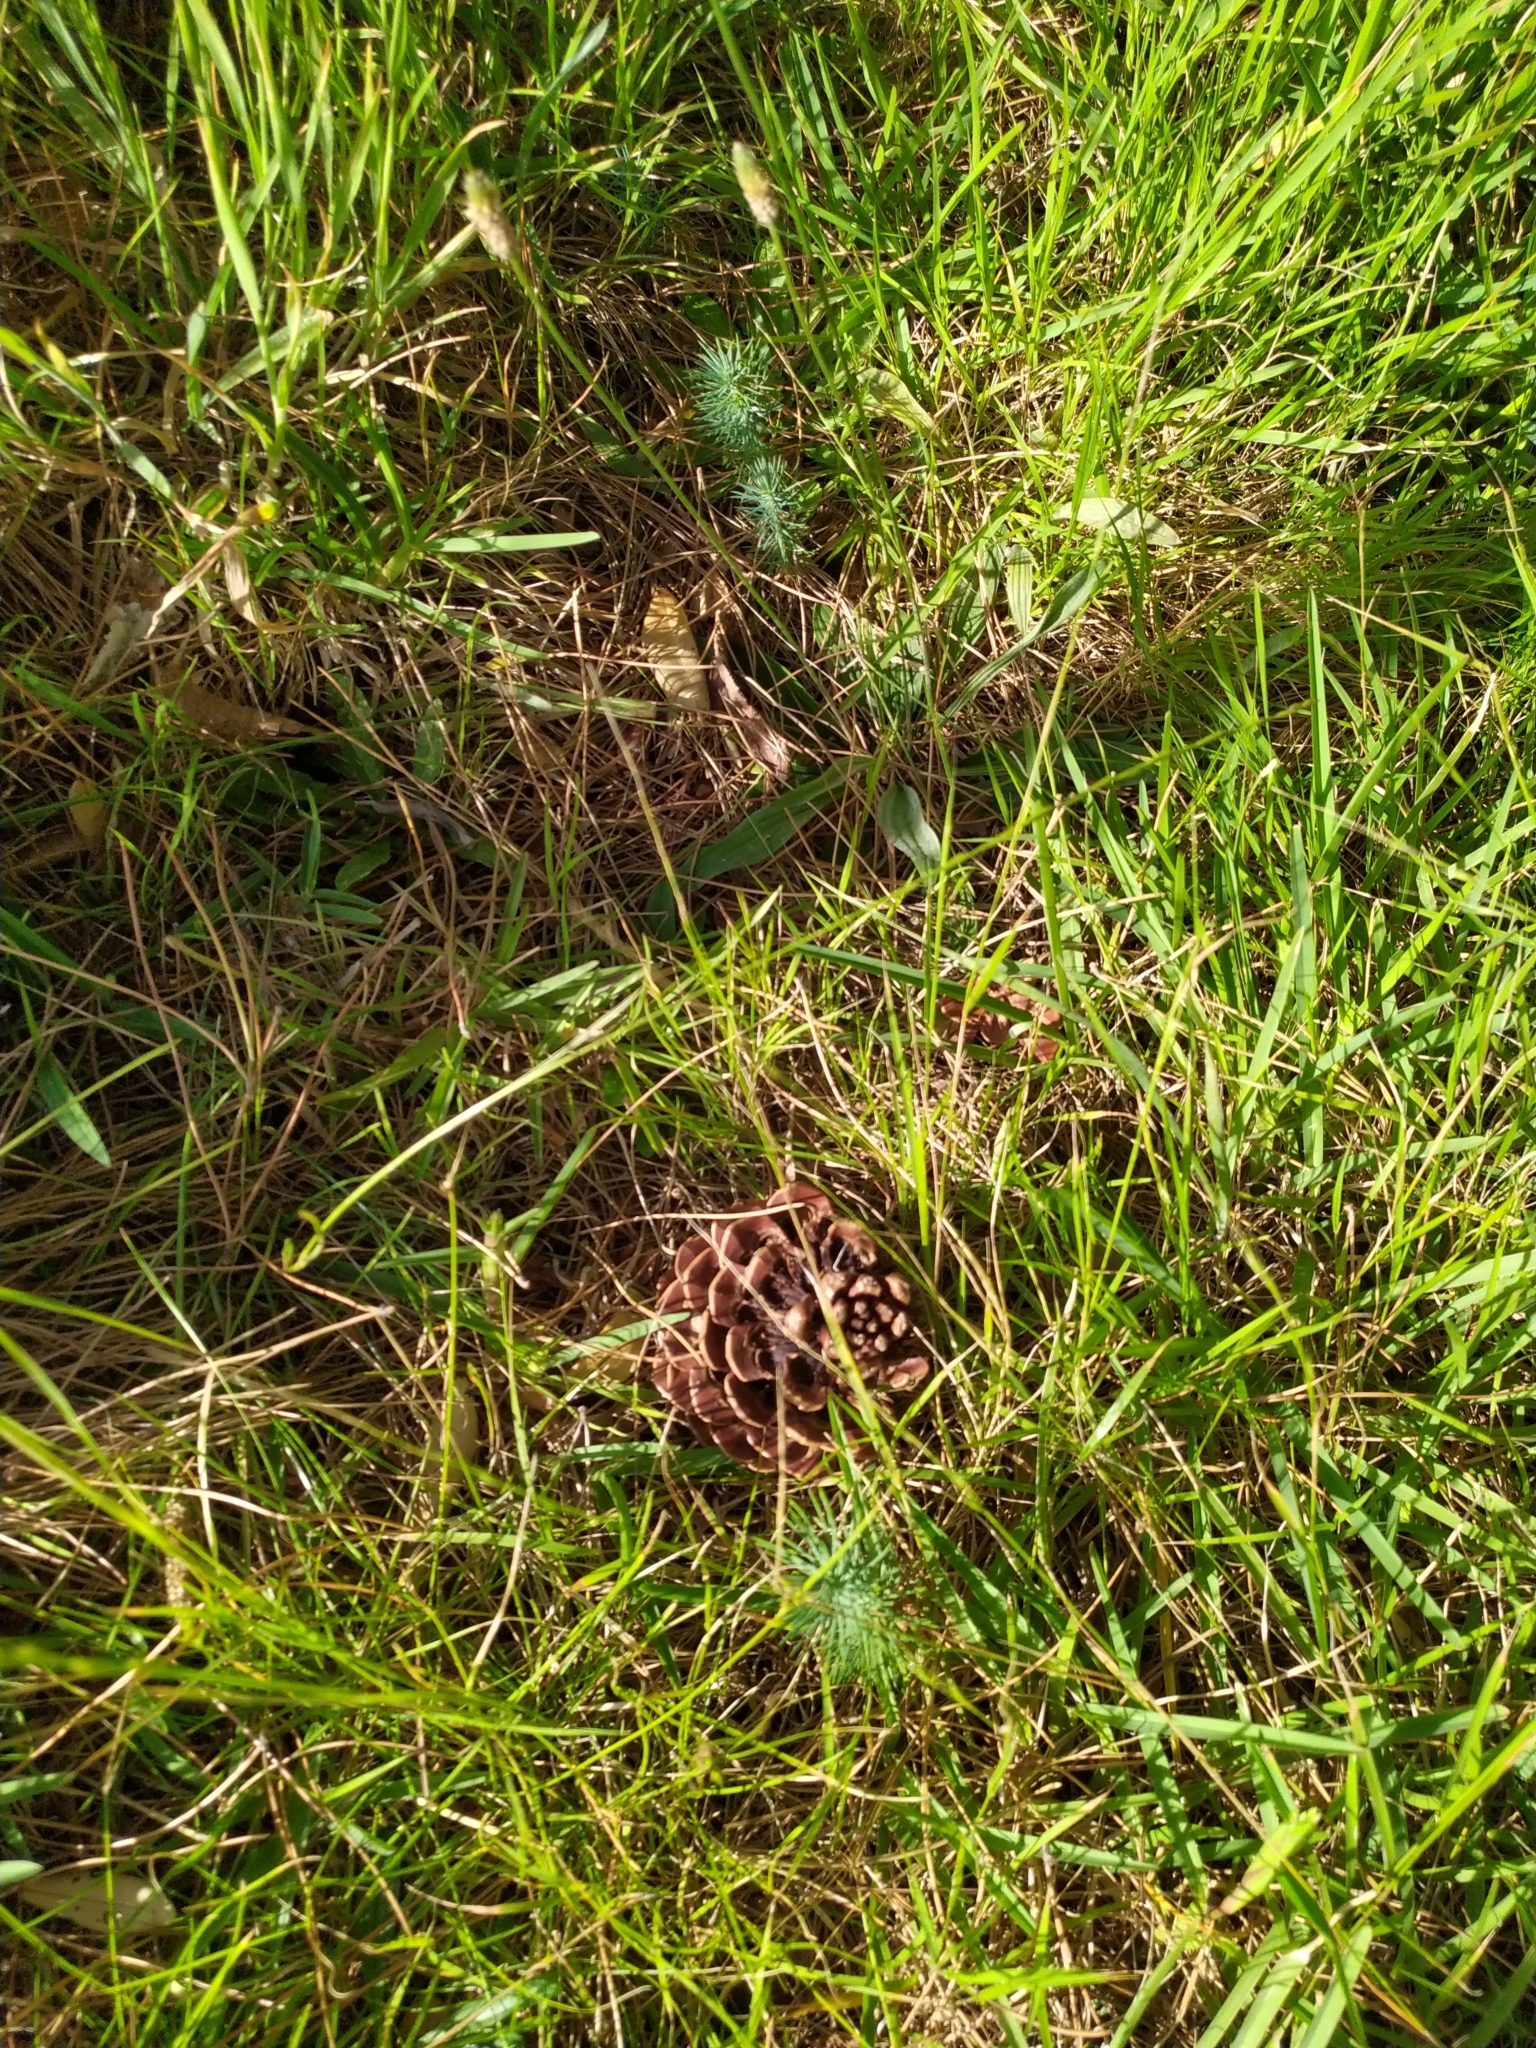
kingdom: Plantae
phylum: Tracheophyta
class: Pinopsida
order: Pinales
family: Pinaceae
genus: Pinus
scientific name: Pinus pinea
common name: Italian stone pine
